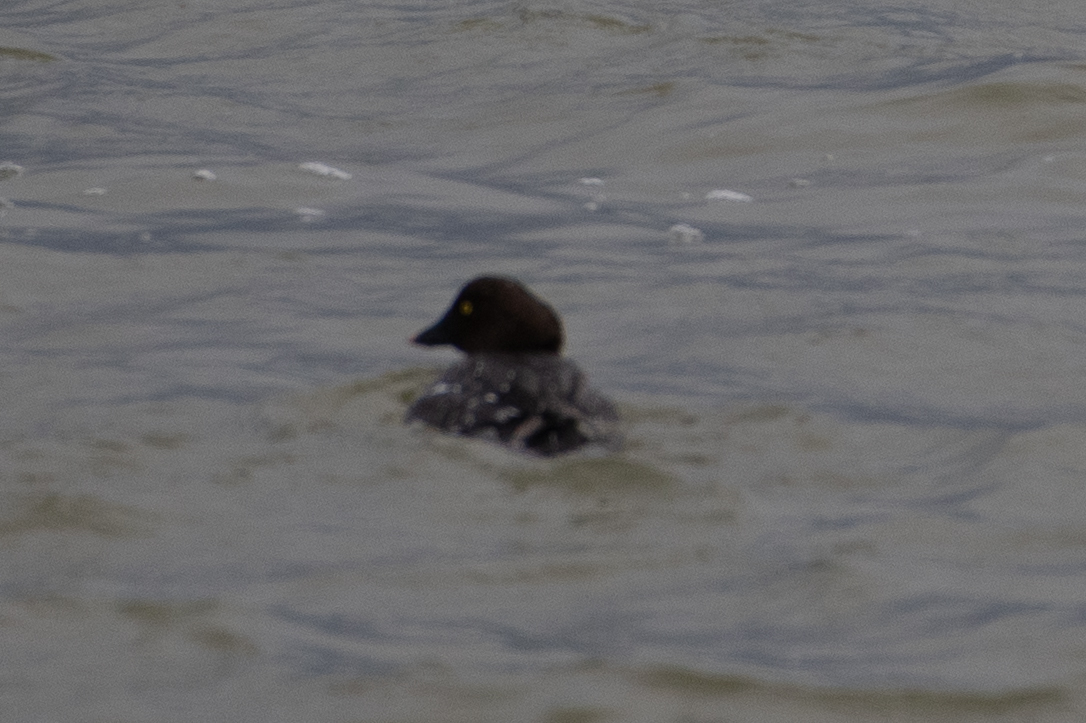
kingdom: Animalia
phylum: Chordata
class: Aves
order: Anseriformes
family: Anatidae
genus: Bucephala
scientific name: Bucephala clangula
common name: Common goldeneye
